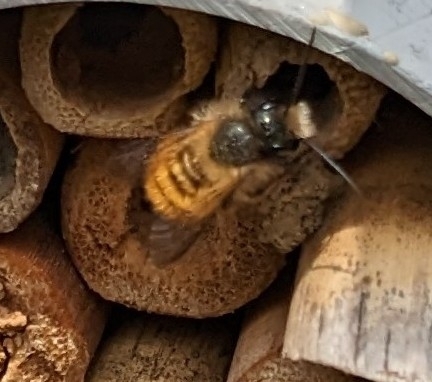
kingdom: Animalia
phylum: Arthropoda
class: Insecta
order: Hymenoptera
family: Megachilidae
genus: Osmia
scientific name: Osmia bicornis
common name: Red mason bee
